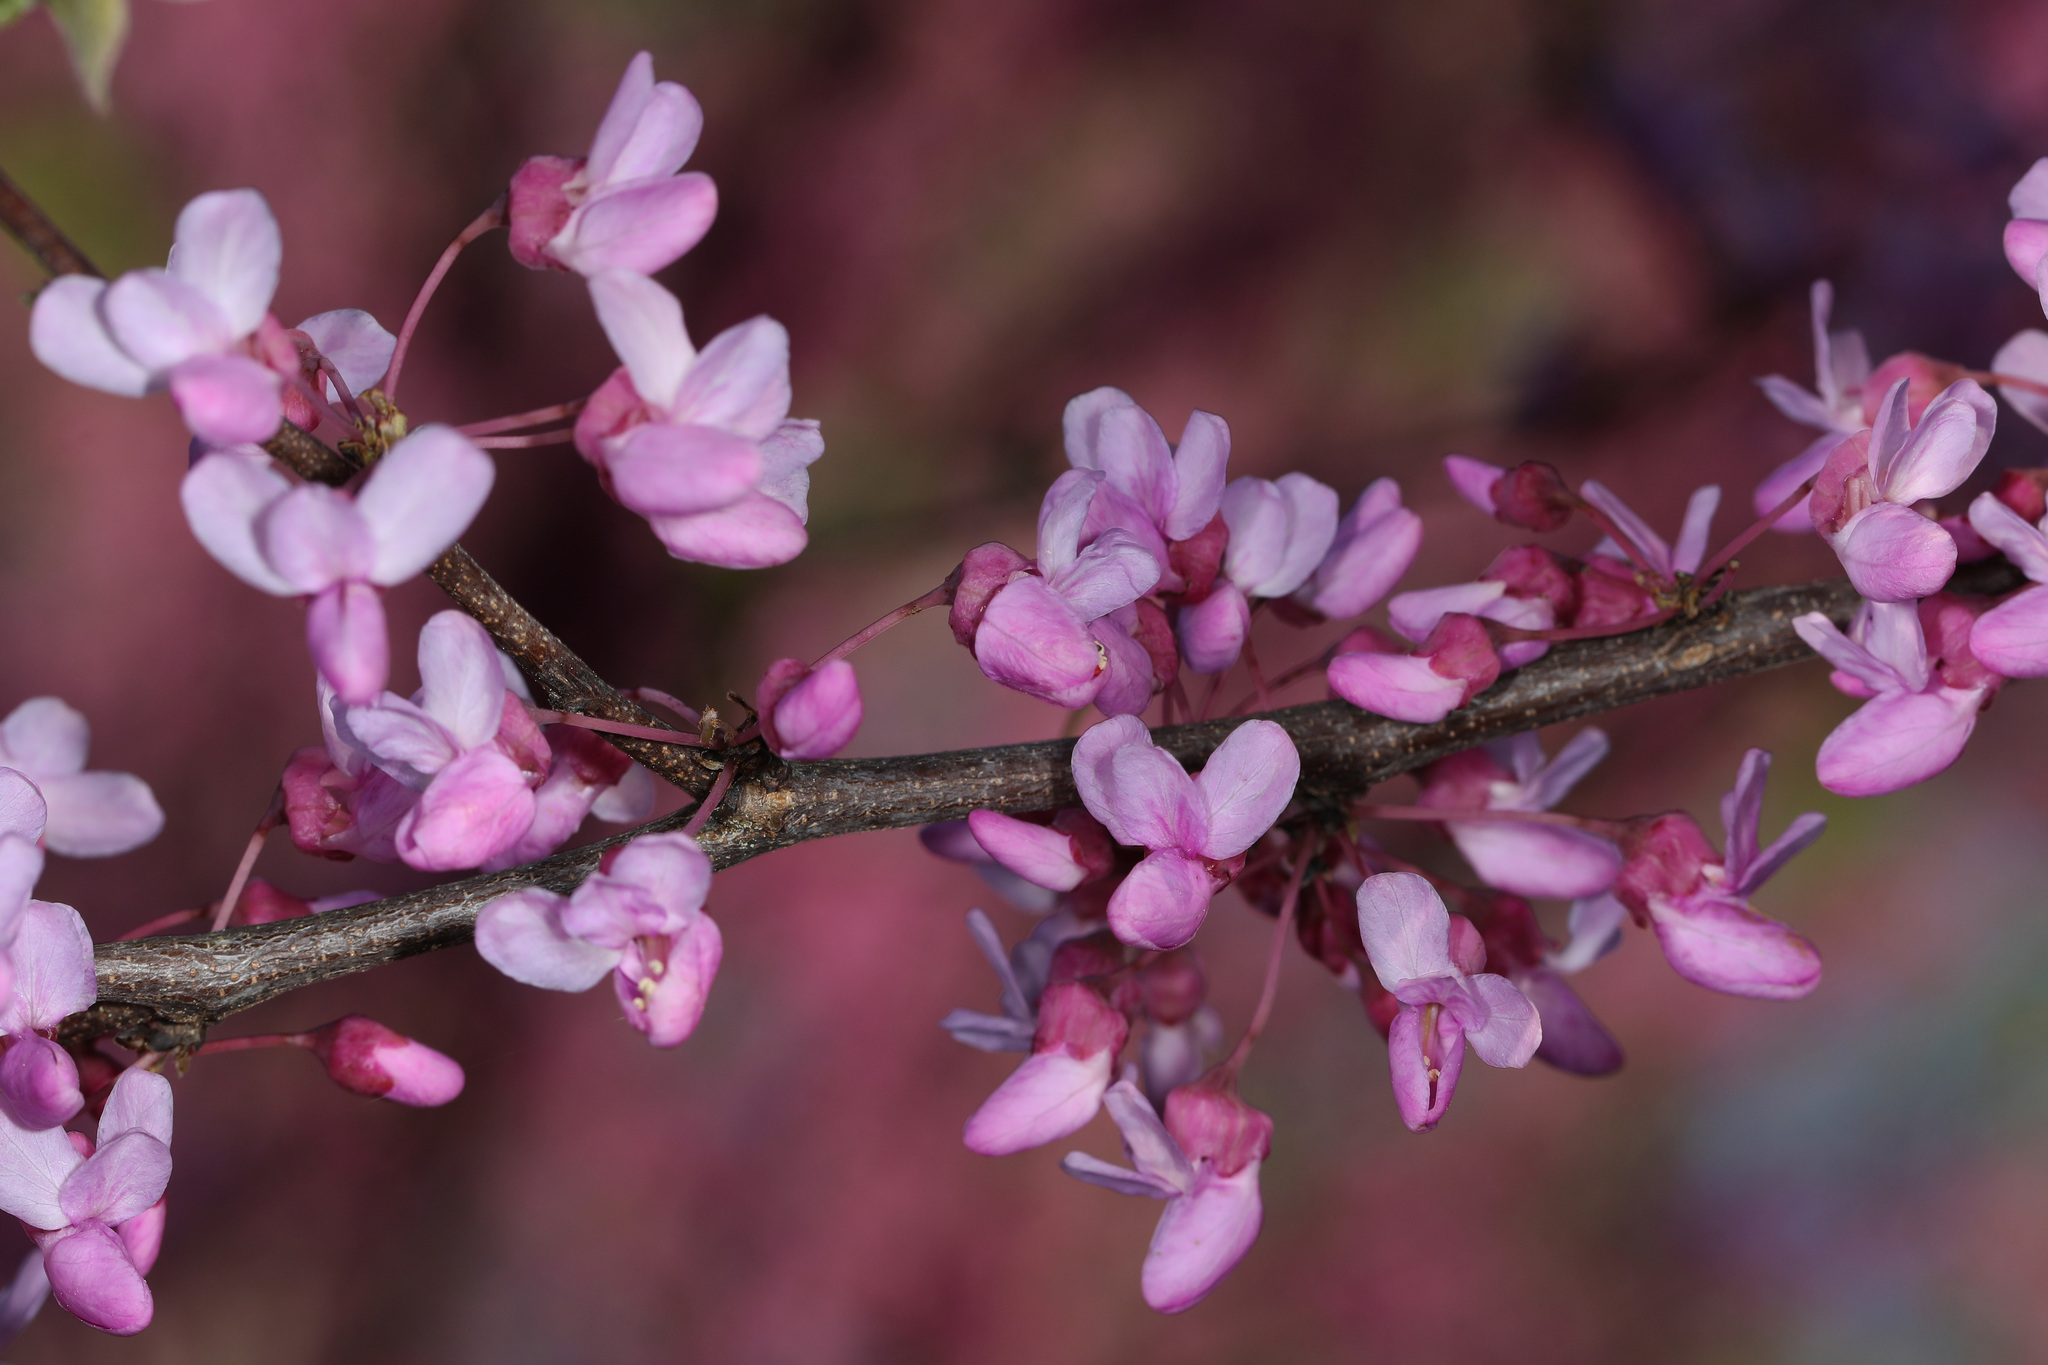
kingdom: Plantae
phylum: Tracheophyta
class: Magnoliopsida
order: Fabales
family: Fabaceae
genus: Cercis
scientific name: Cercis canadensis
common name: Eastern redbud
